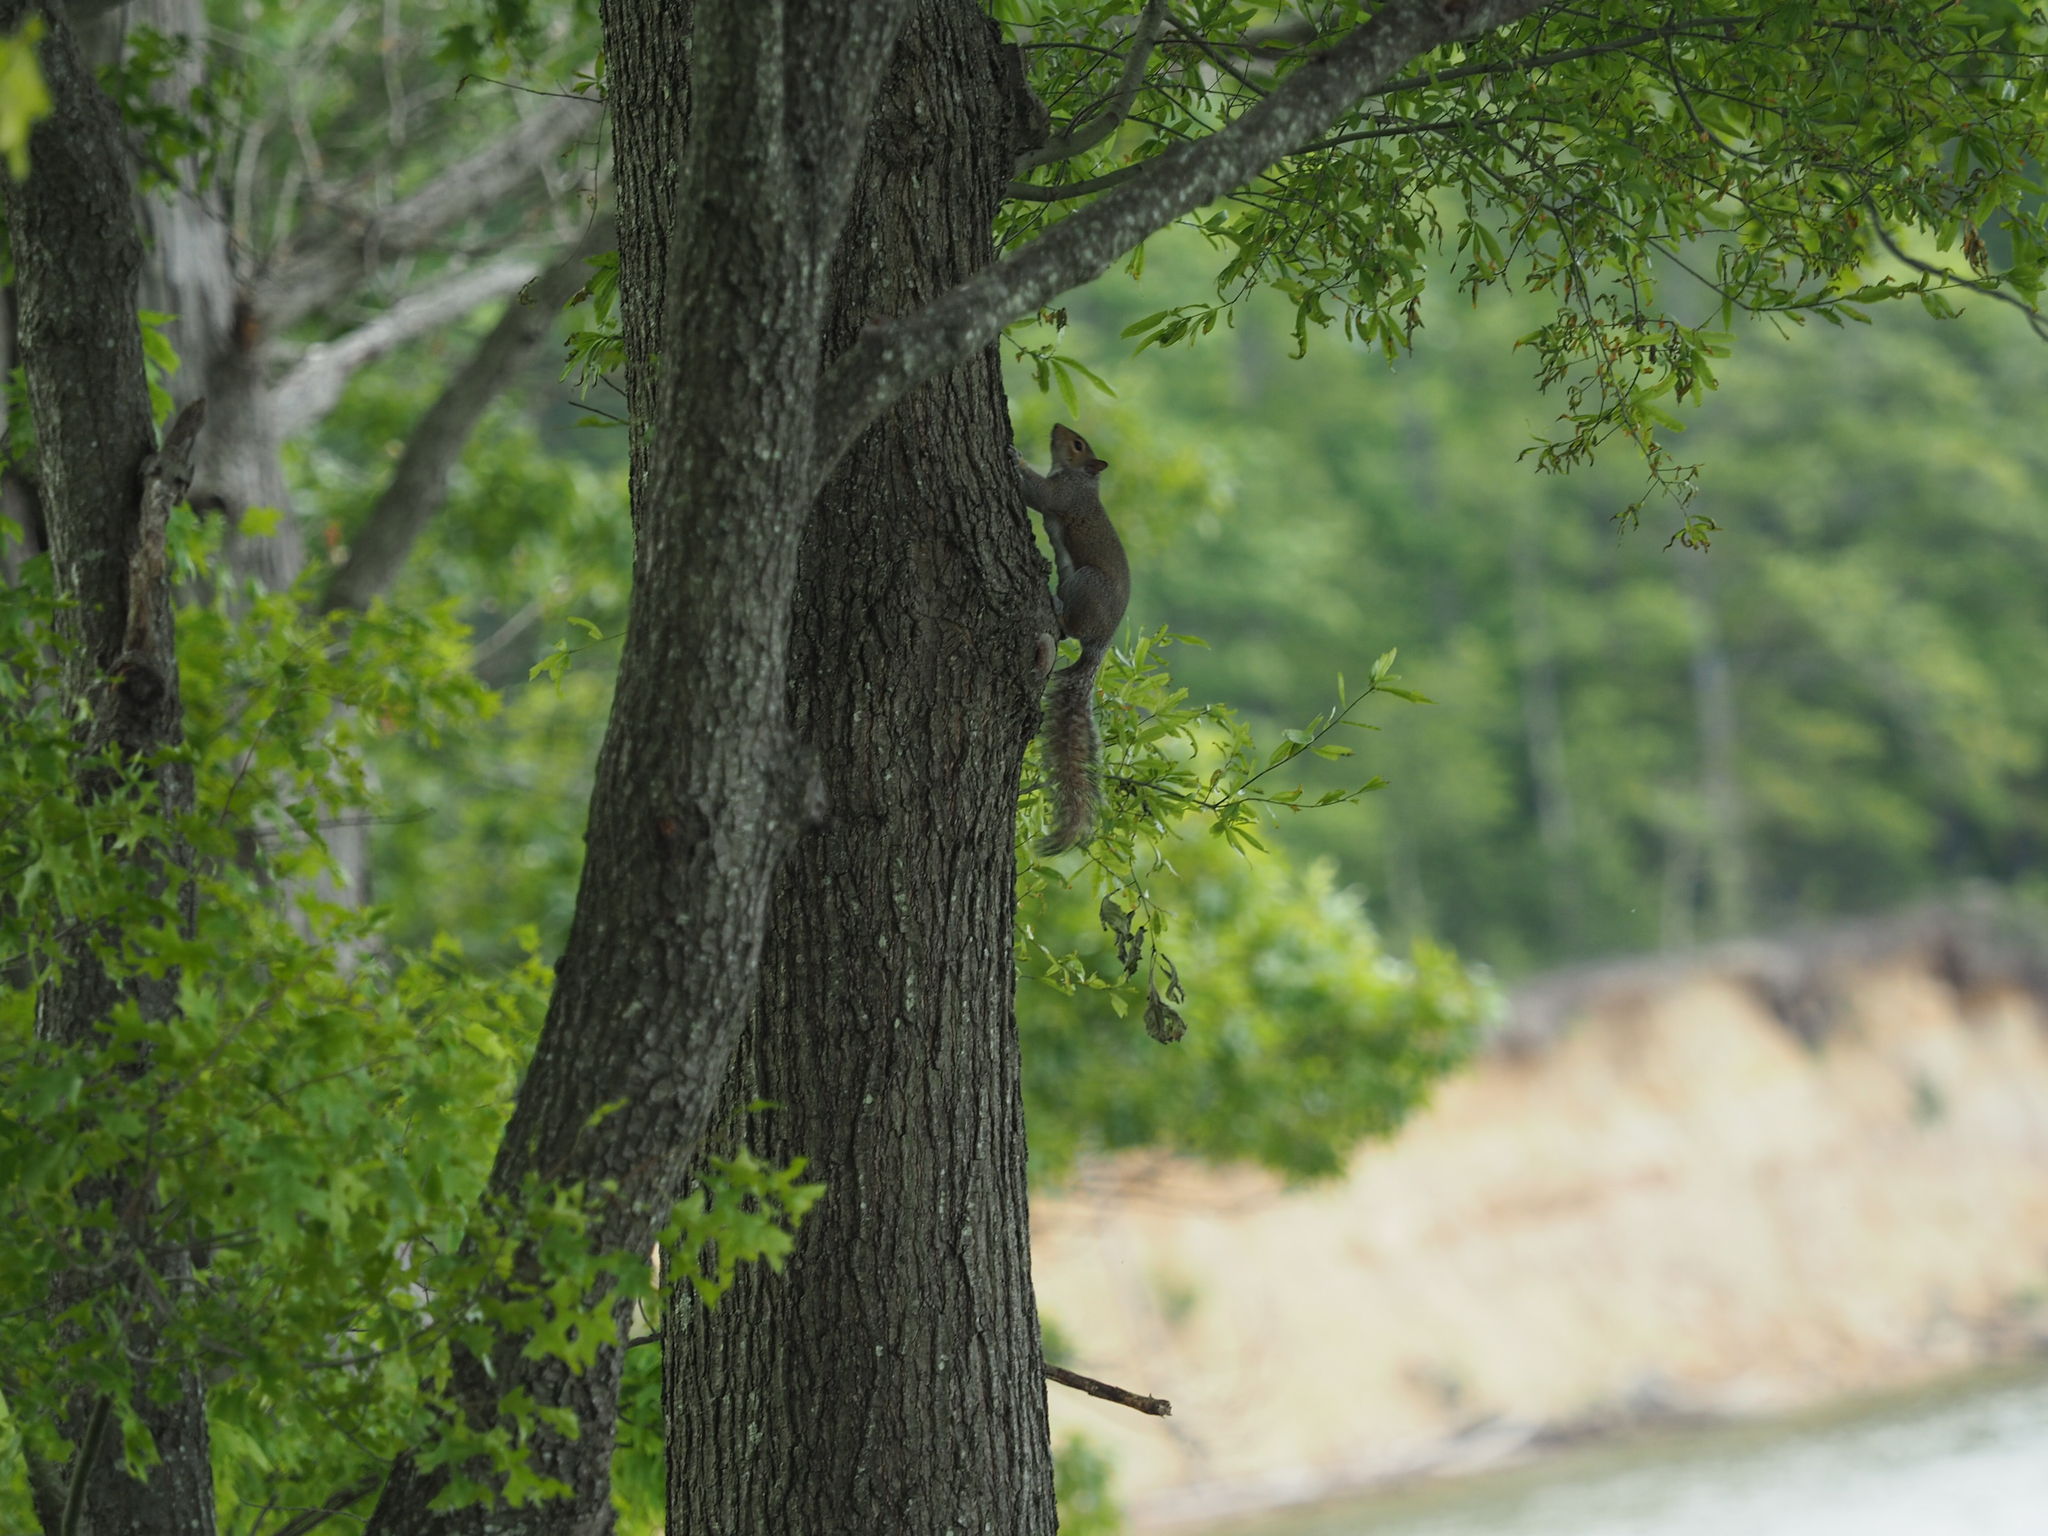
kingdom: Animalia
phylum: Chordata
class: Mammalia
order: Rodentia
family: Sciuridae
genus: Sciurus
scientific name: Sciurus carolinensis
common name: Eastern gray squirrel
